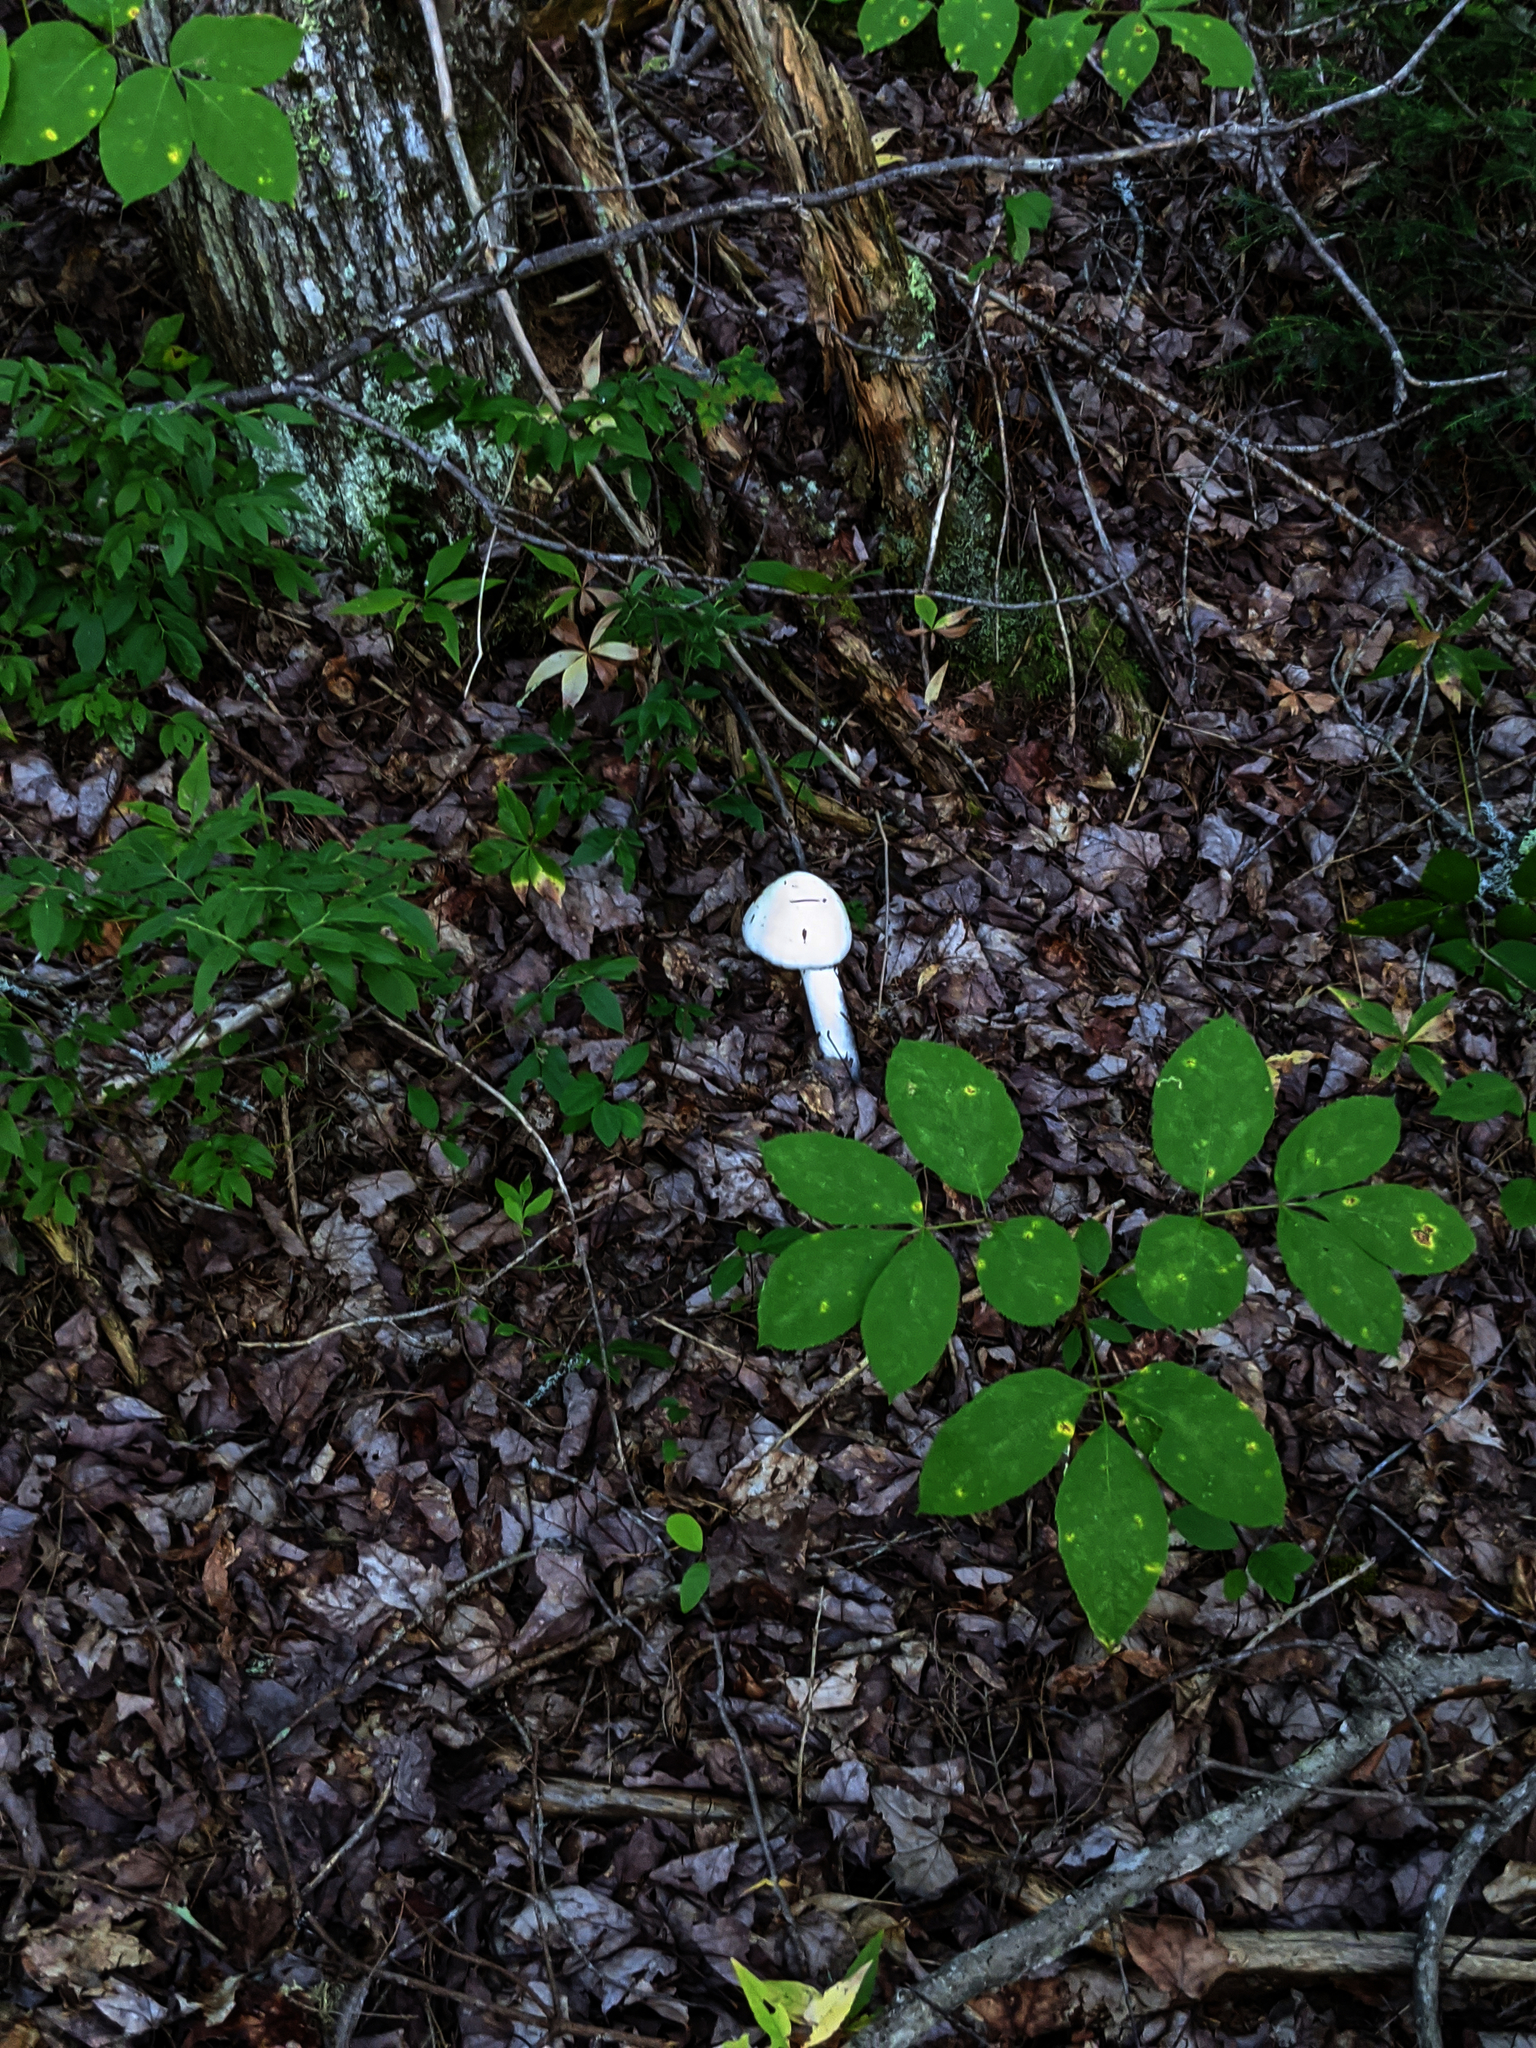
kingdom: Plantae
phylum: Tracheophyta
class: Magnoliopsida
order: Apiales
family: Araliaceae
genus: Aralia
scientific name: Aralia nudicaulis
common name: Wild sarsaparilla
